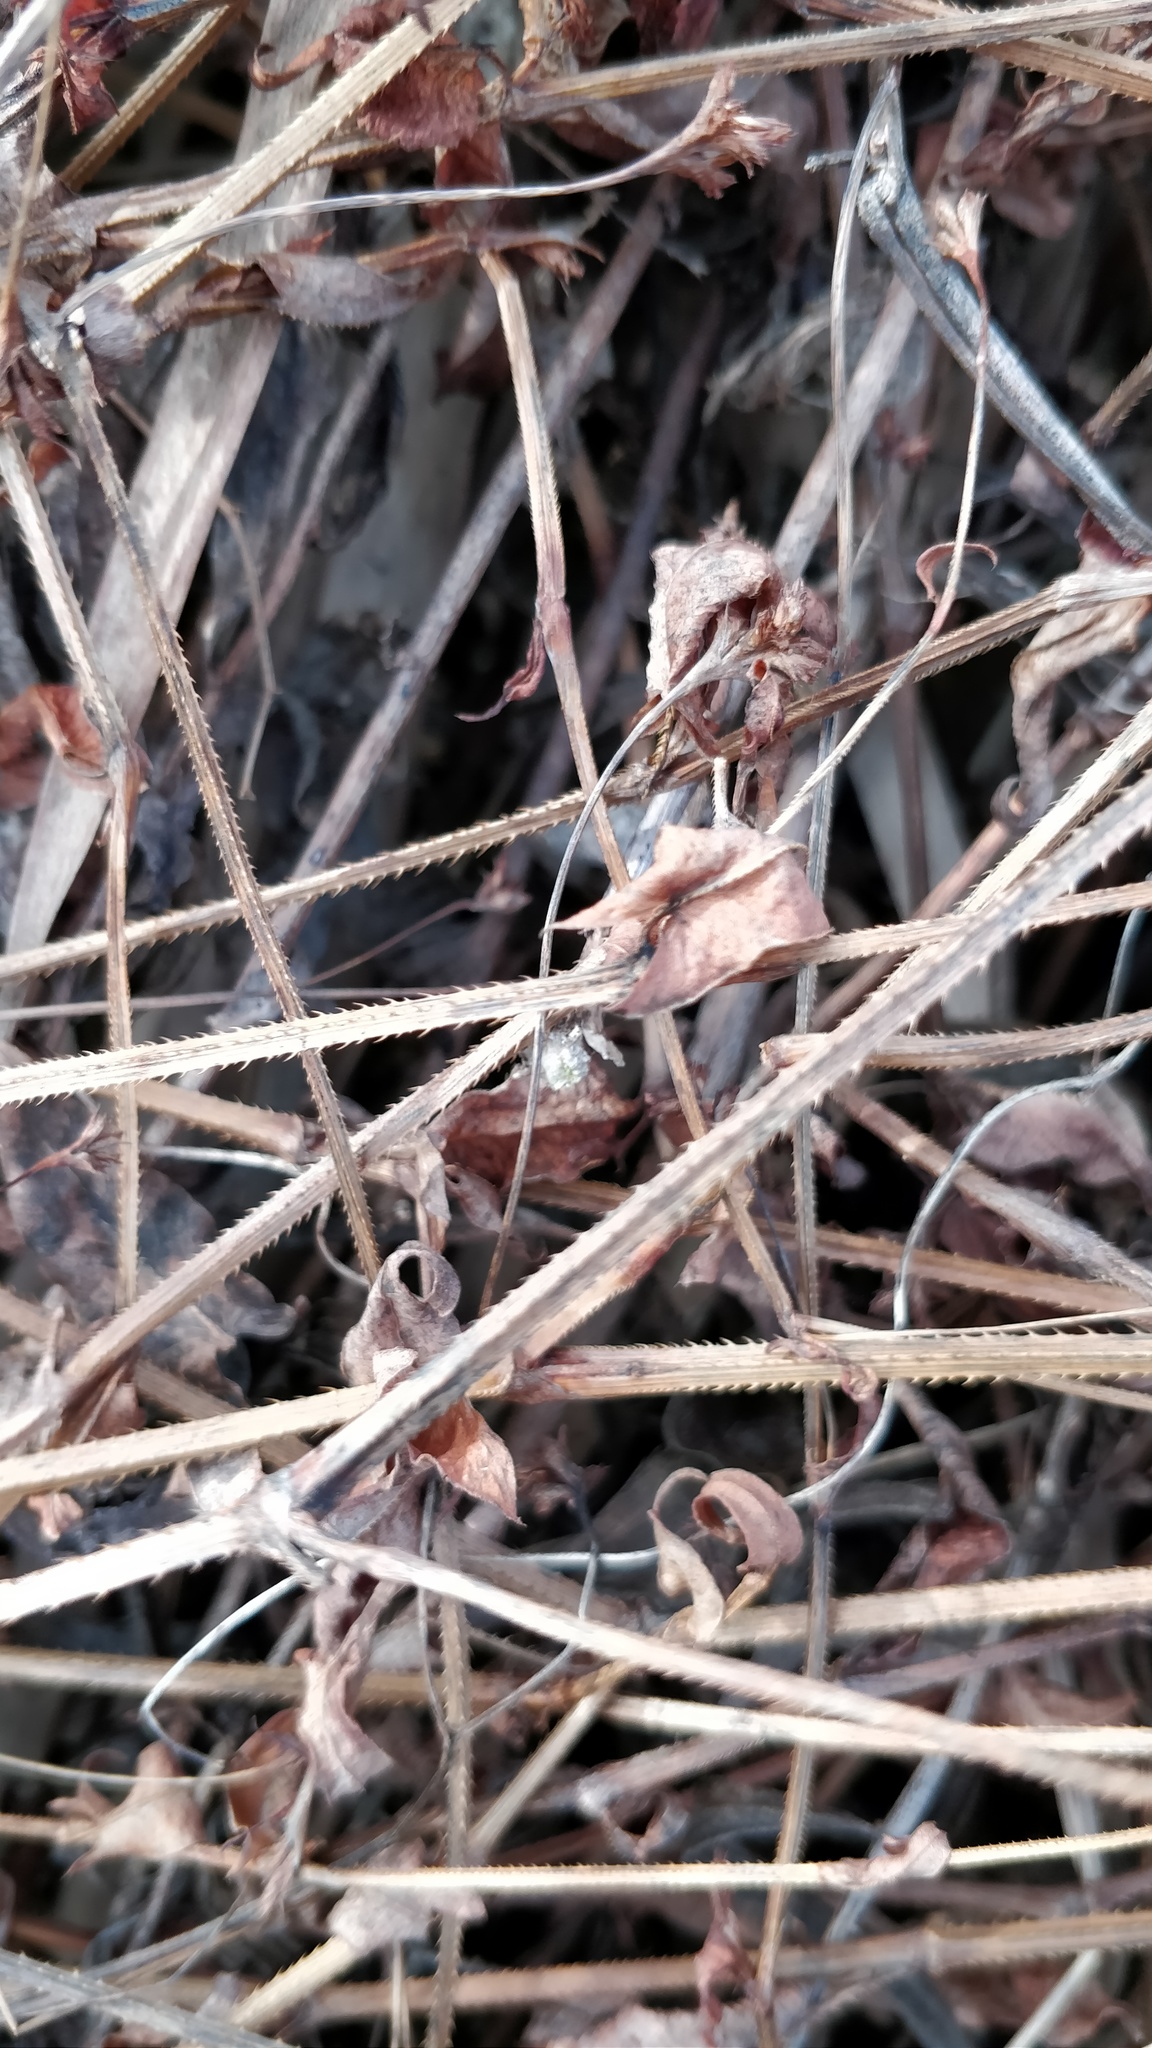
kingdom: Plantae
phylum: Tracheophyta
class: Magnoliopsida
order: Caryophyllales
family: Polygonaceae
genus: Persicaria
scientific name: Persicaria perfoliata
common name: Asiatic tearthumb
